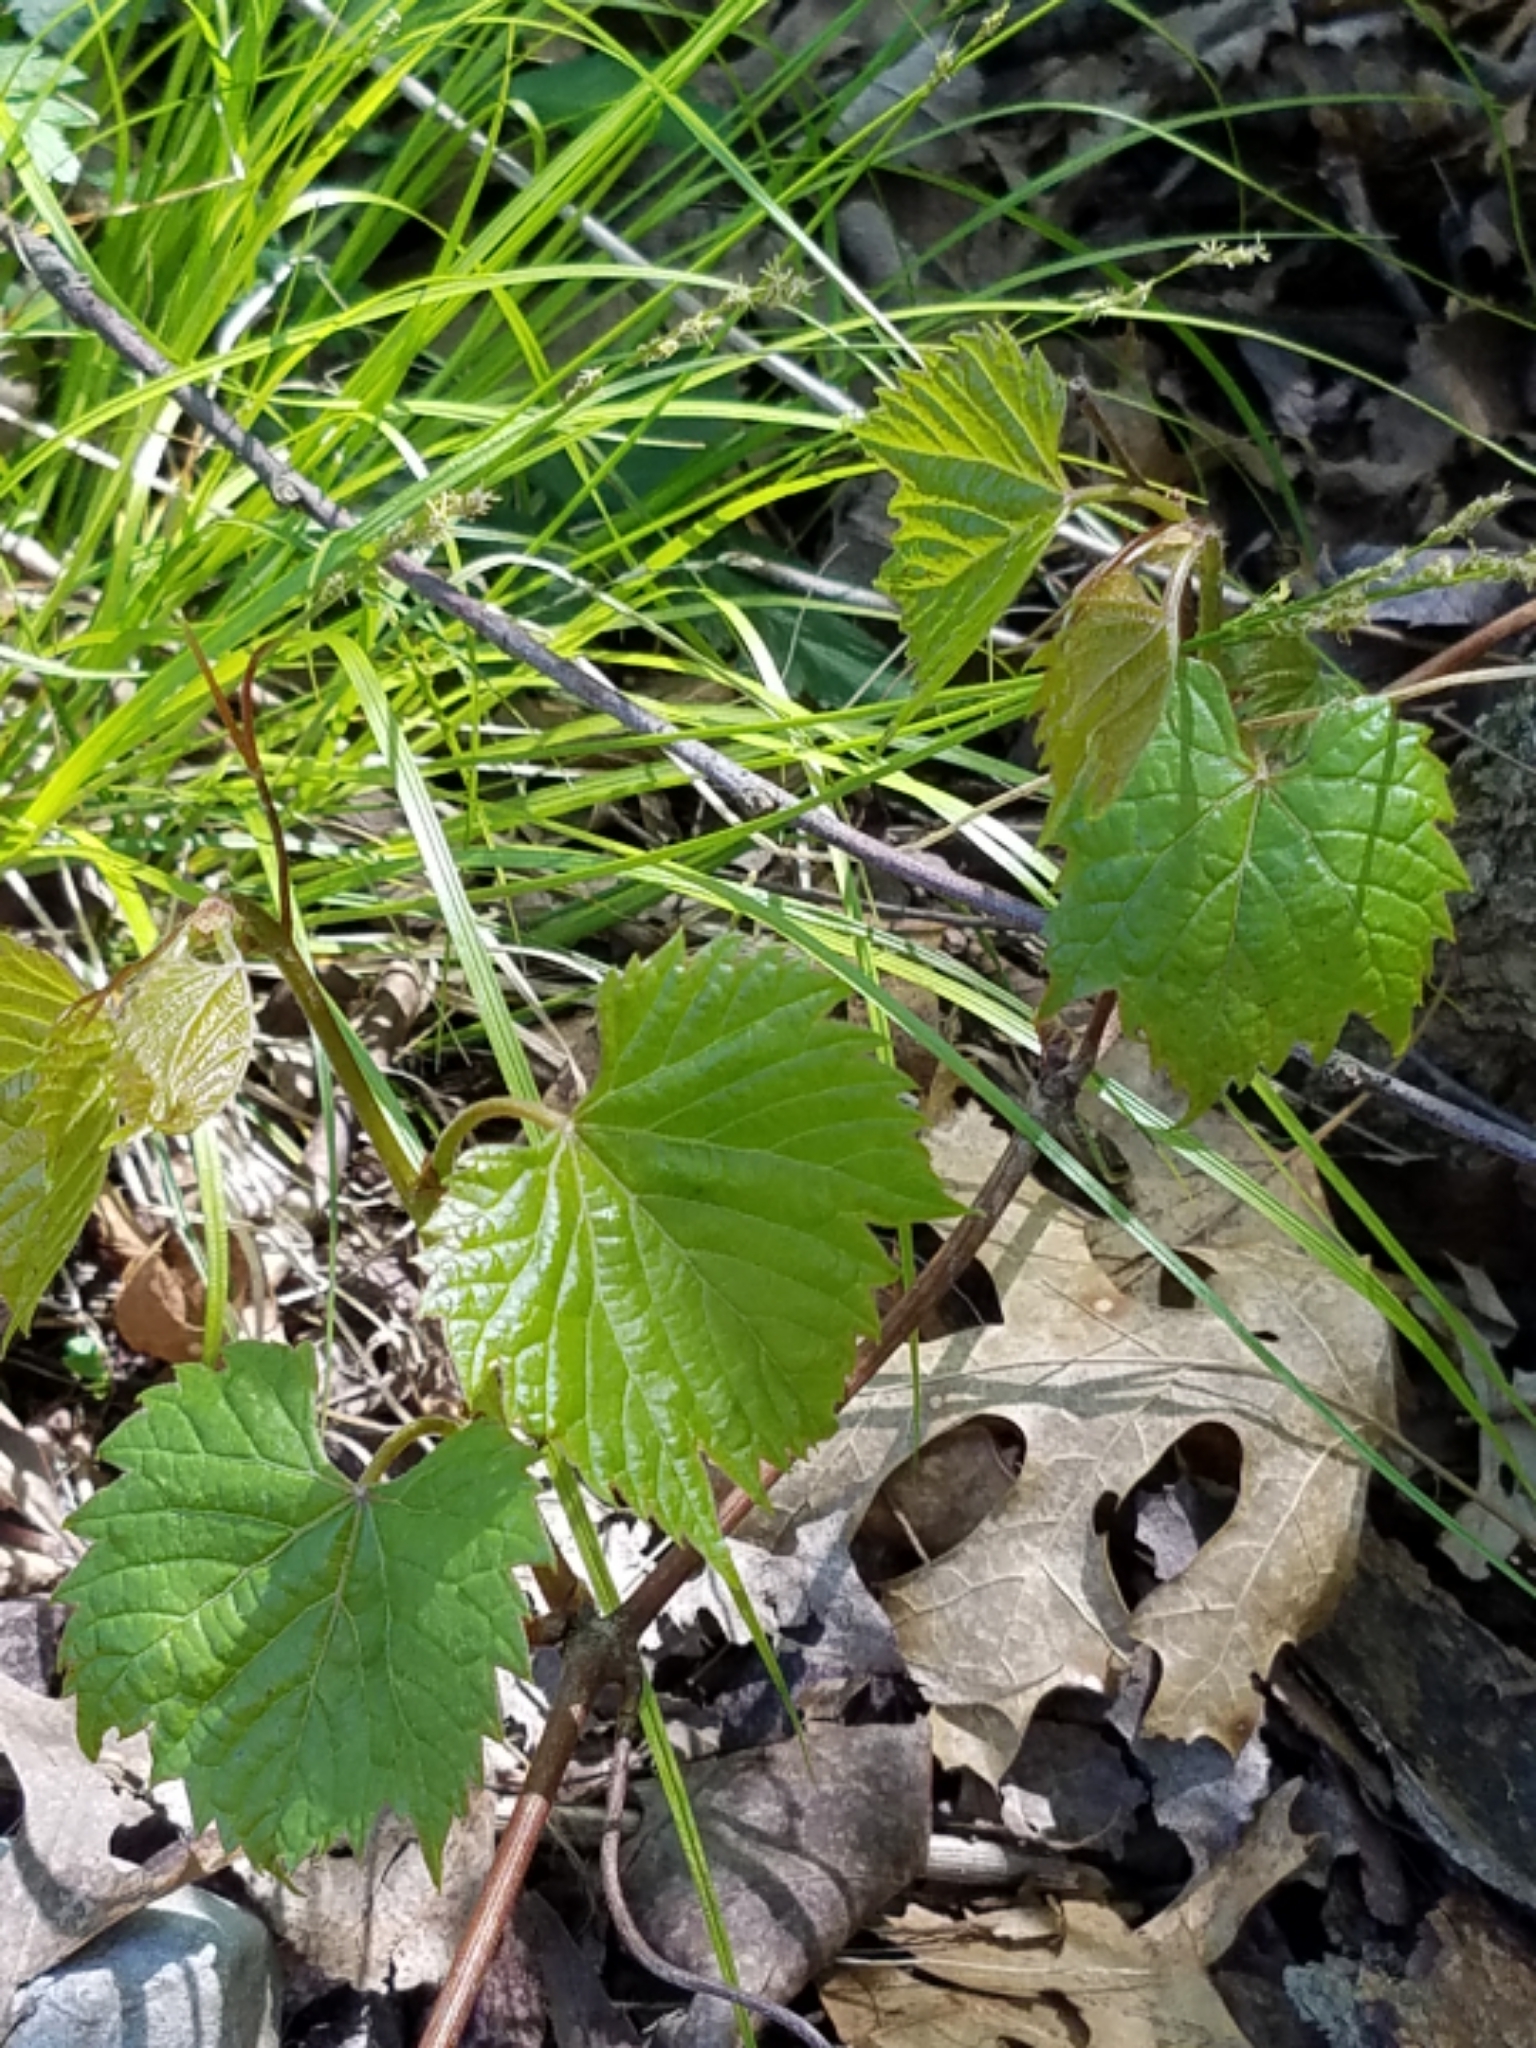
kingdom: Plantae
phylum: Tracheophyta
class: Magnoliopsida
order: Vitales
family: Vitaceae
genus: Vitis
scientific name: Vitis riparia
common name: Frost grape
